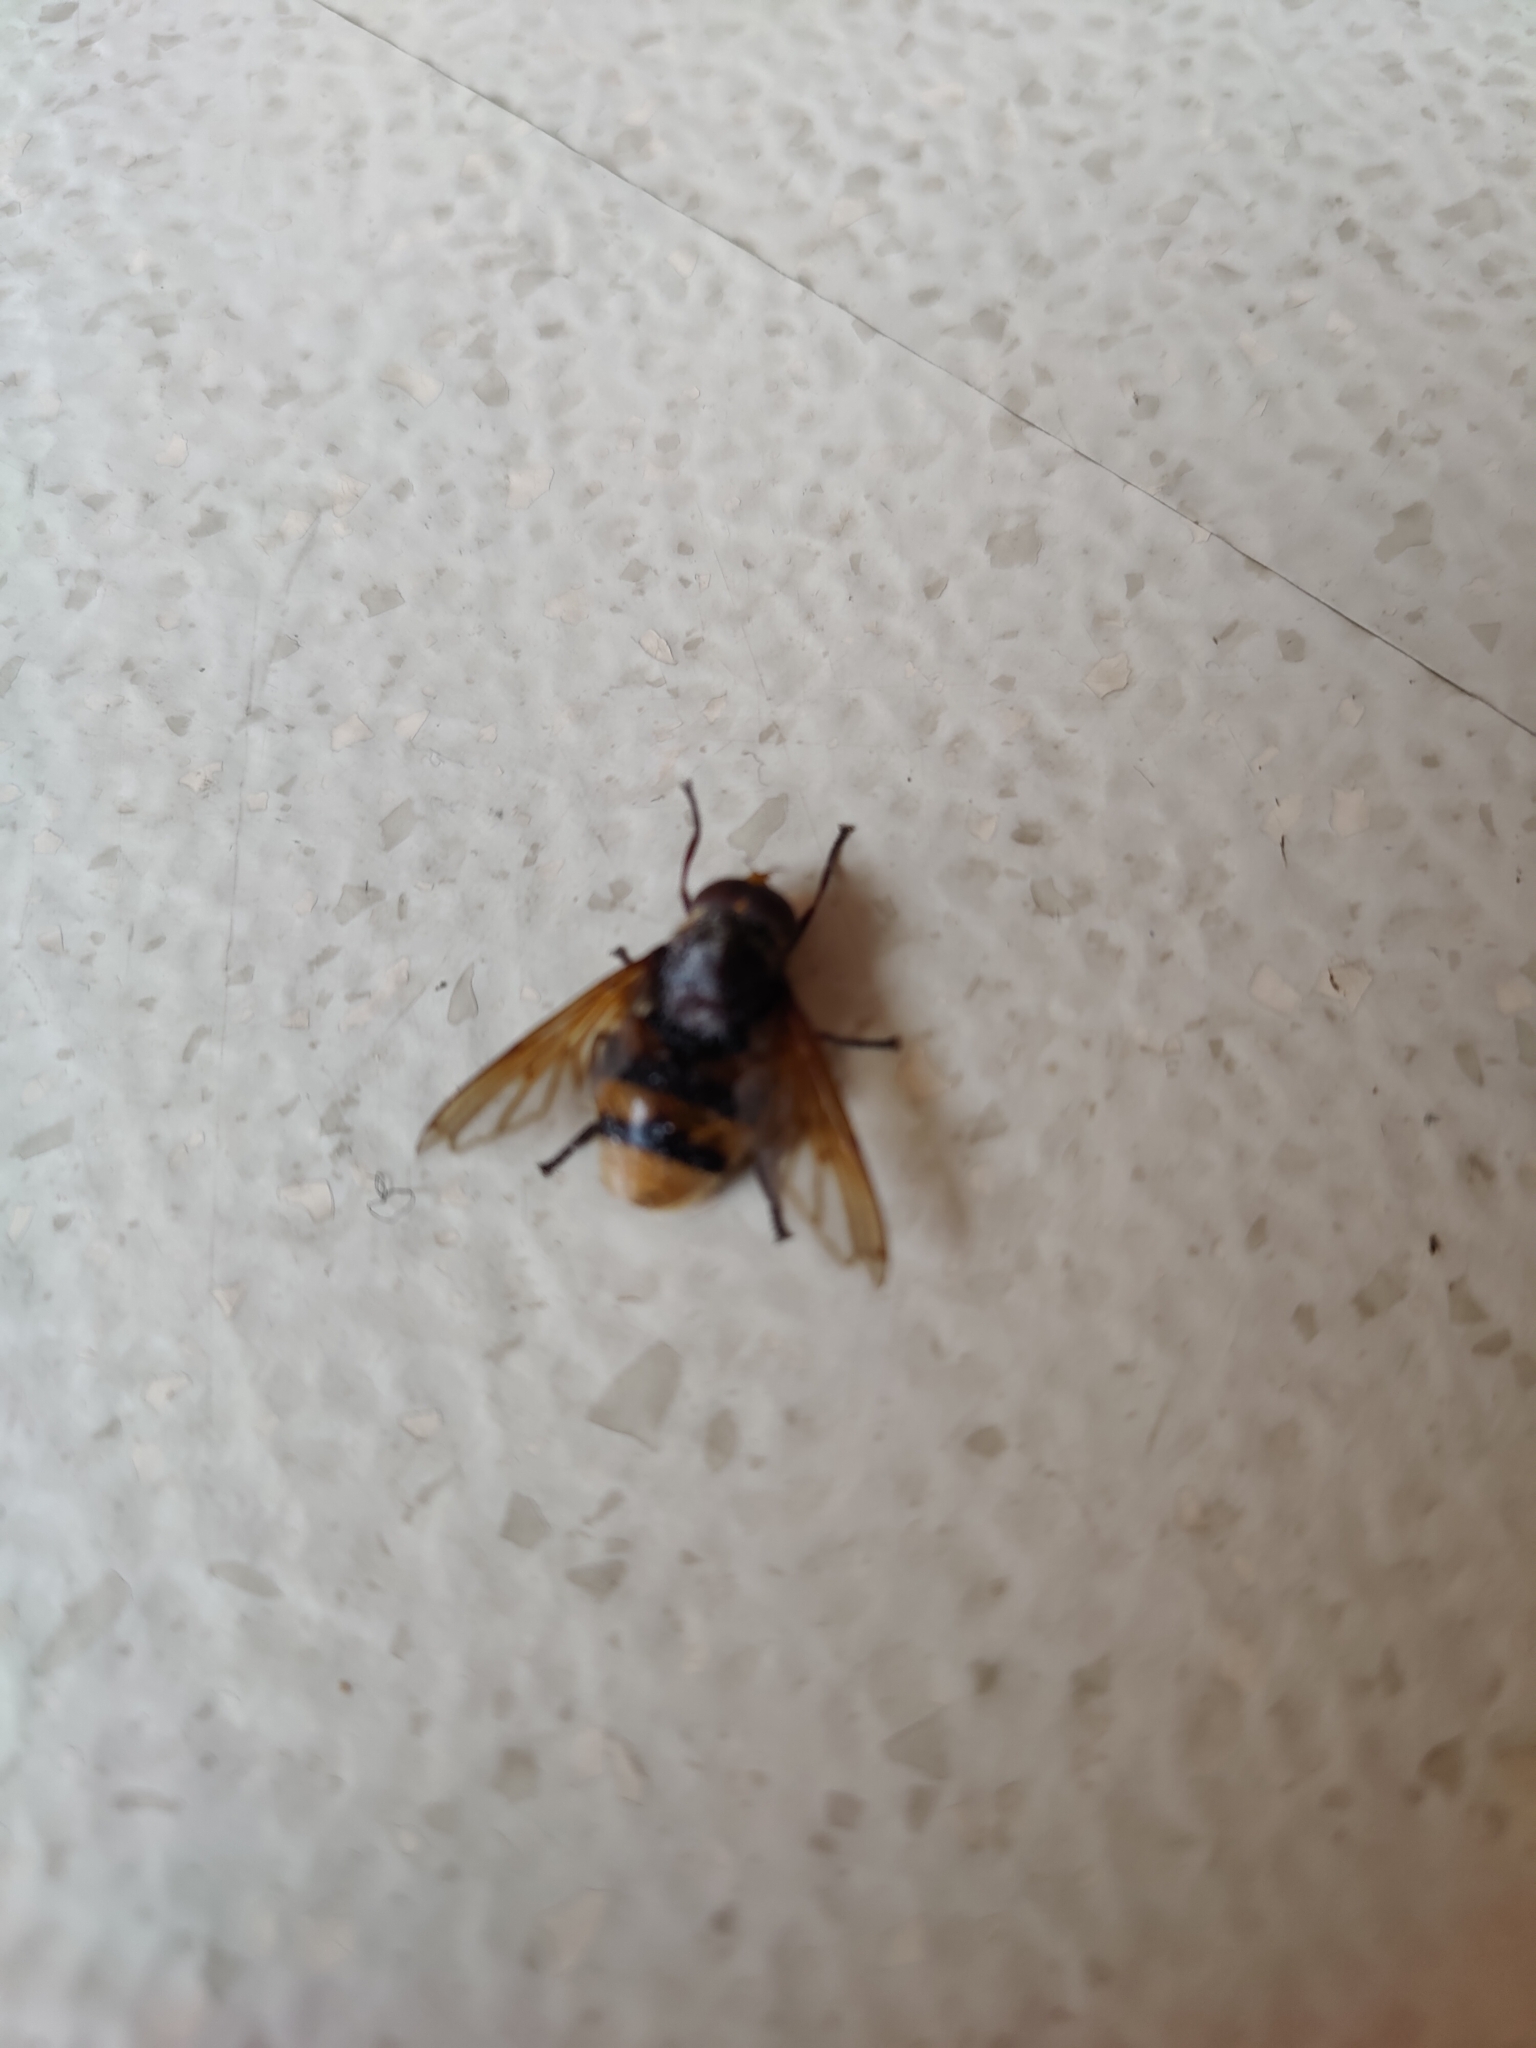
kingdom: Animalia
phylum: Arthropoda
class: Insecta
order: Diptera
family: Syrphidae
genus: Volucella
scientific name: Volucella zonaria
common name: Hornet hoverfly
